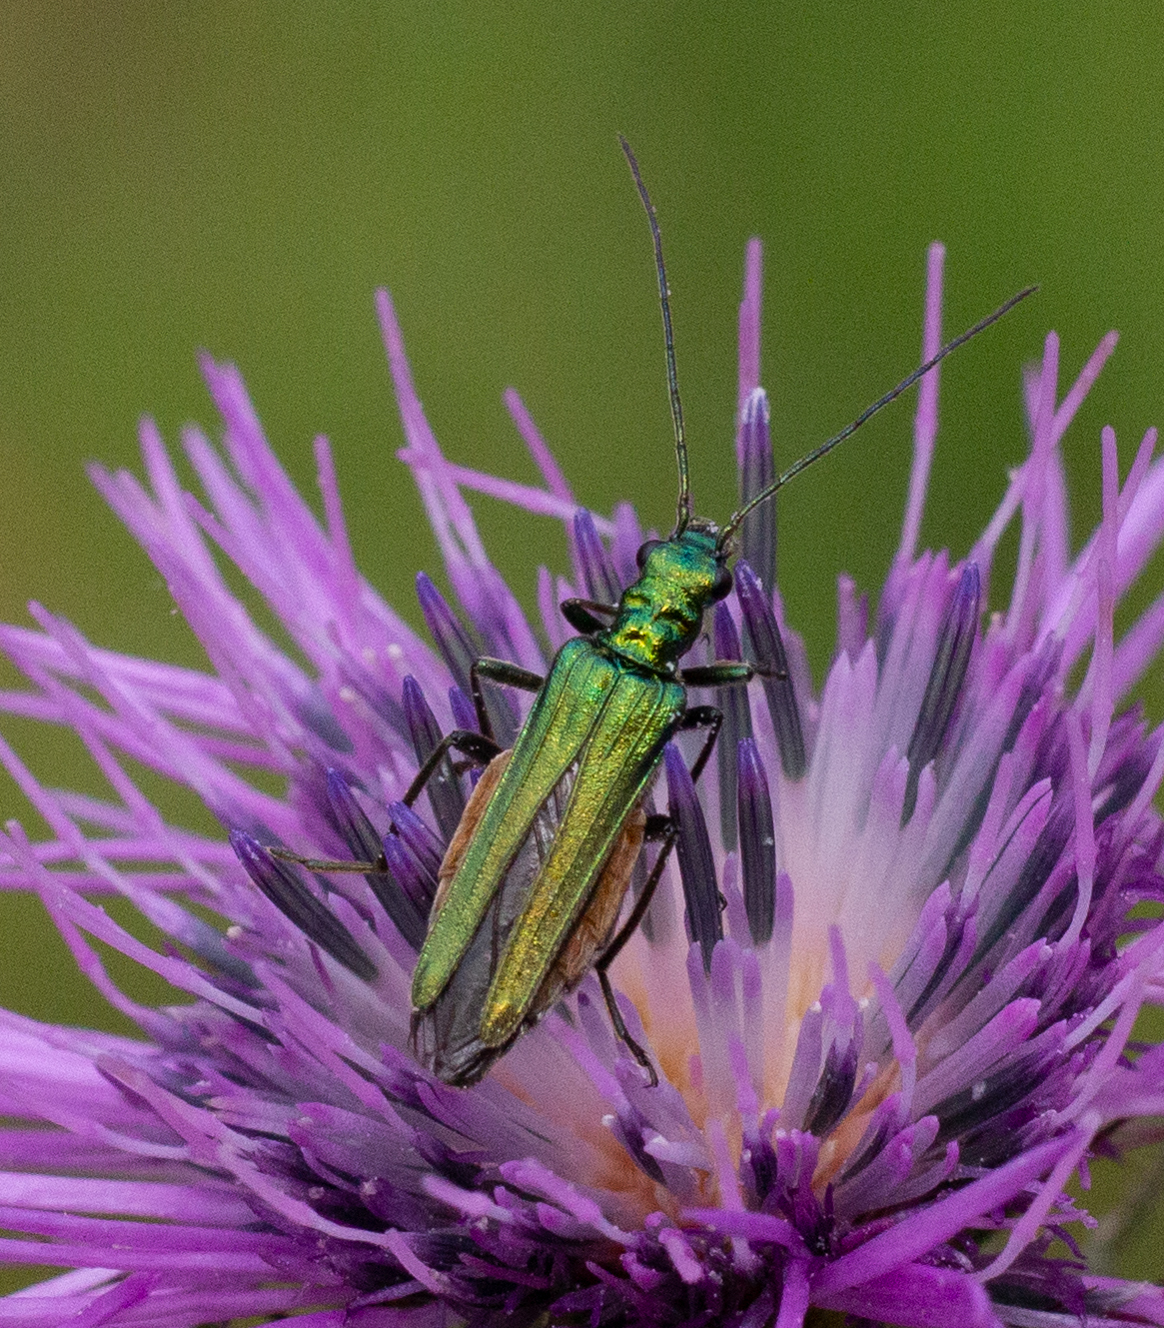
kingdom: Animalia
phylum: Arthropoda
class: Insecta
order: Coleoptera
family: Oedemeridae
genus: Oedemera
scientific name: Oedemera nobilis
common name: Swollen-thighed beetle
